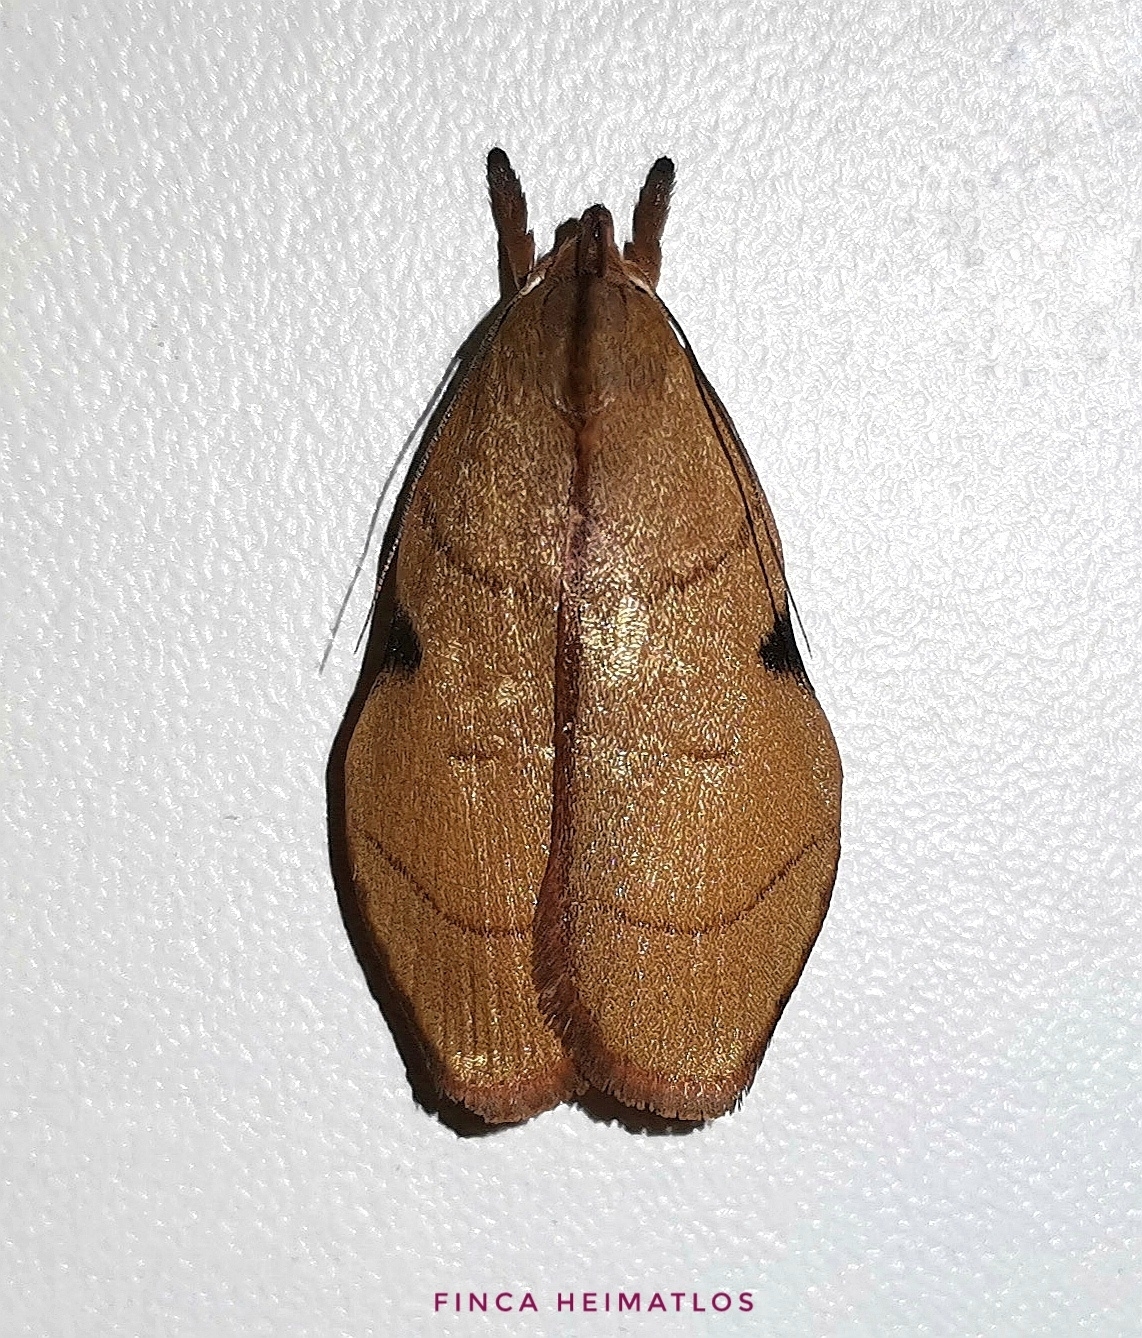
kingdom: Animalia
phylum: Arthropoda
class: Insecta
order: Lepidoptera
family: Depressariidae
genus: Loxotoma
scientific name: Loxotoma elegans
